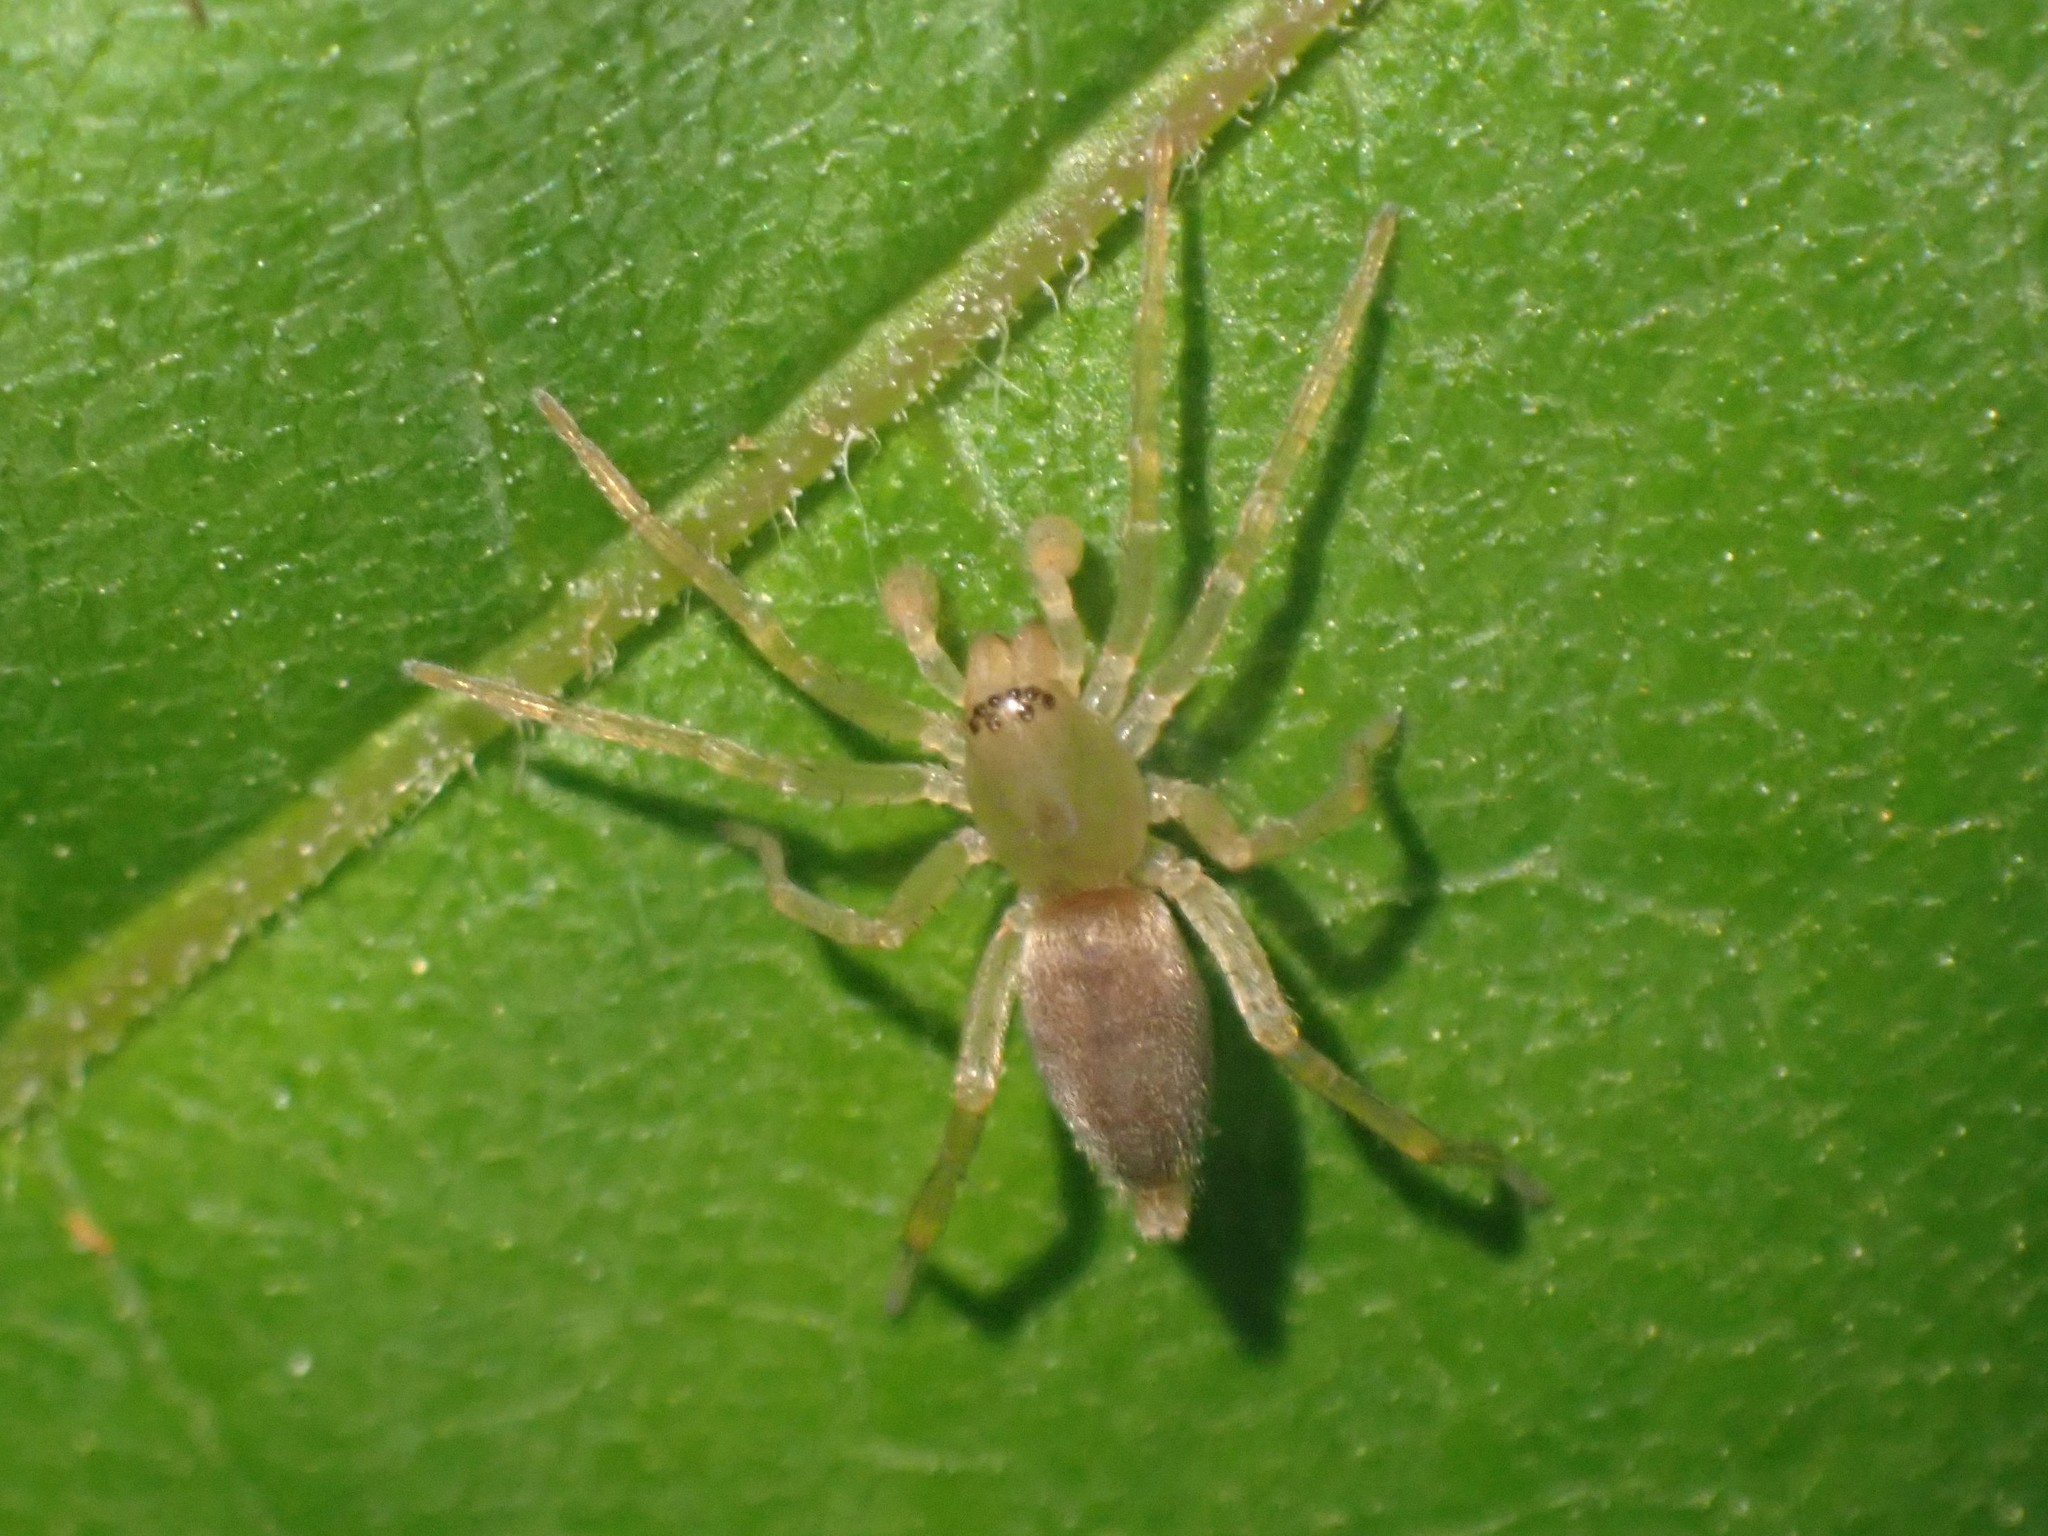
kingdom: Animalia
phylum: Arthropoda
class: Arachnida
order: Araneae
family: Clubionidae
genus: Clubiona
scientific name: Clubiona
